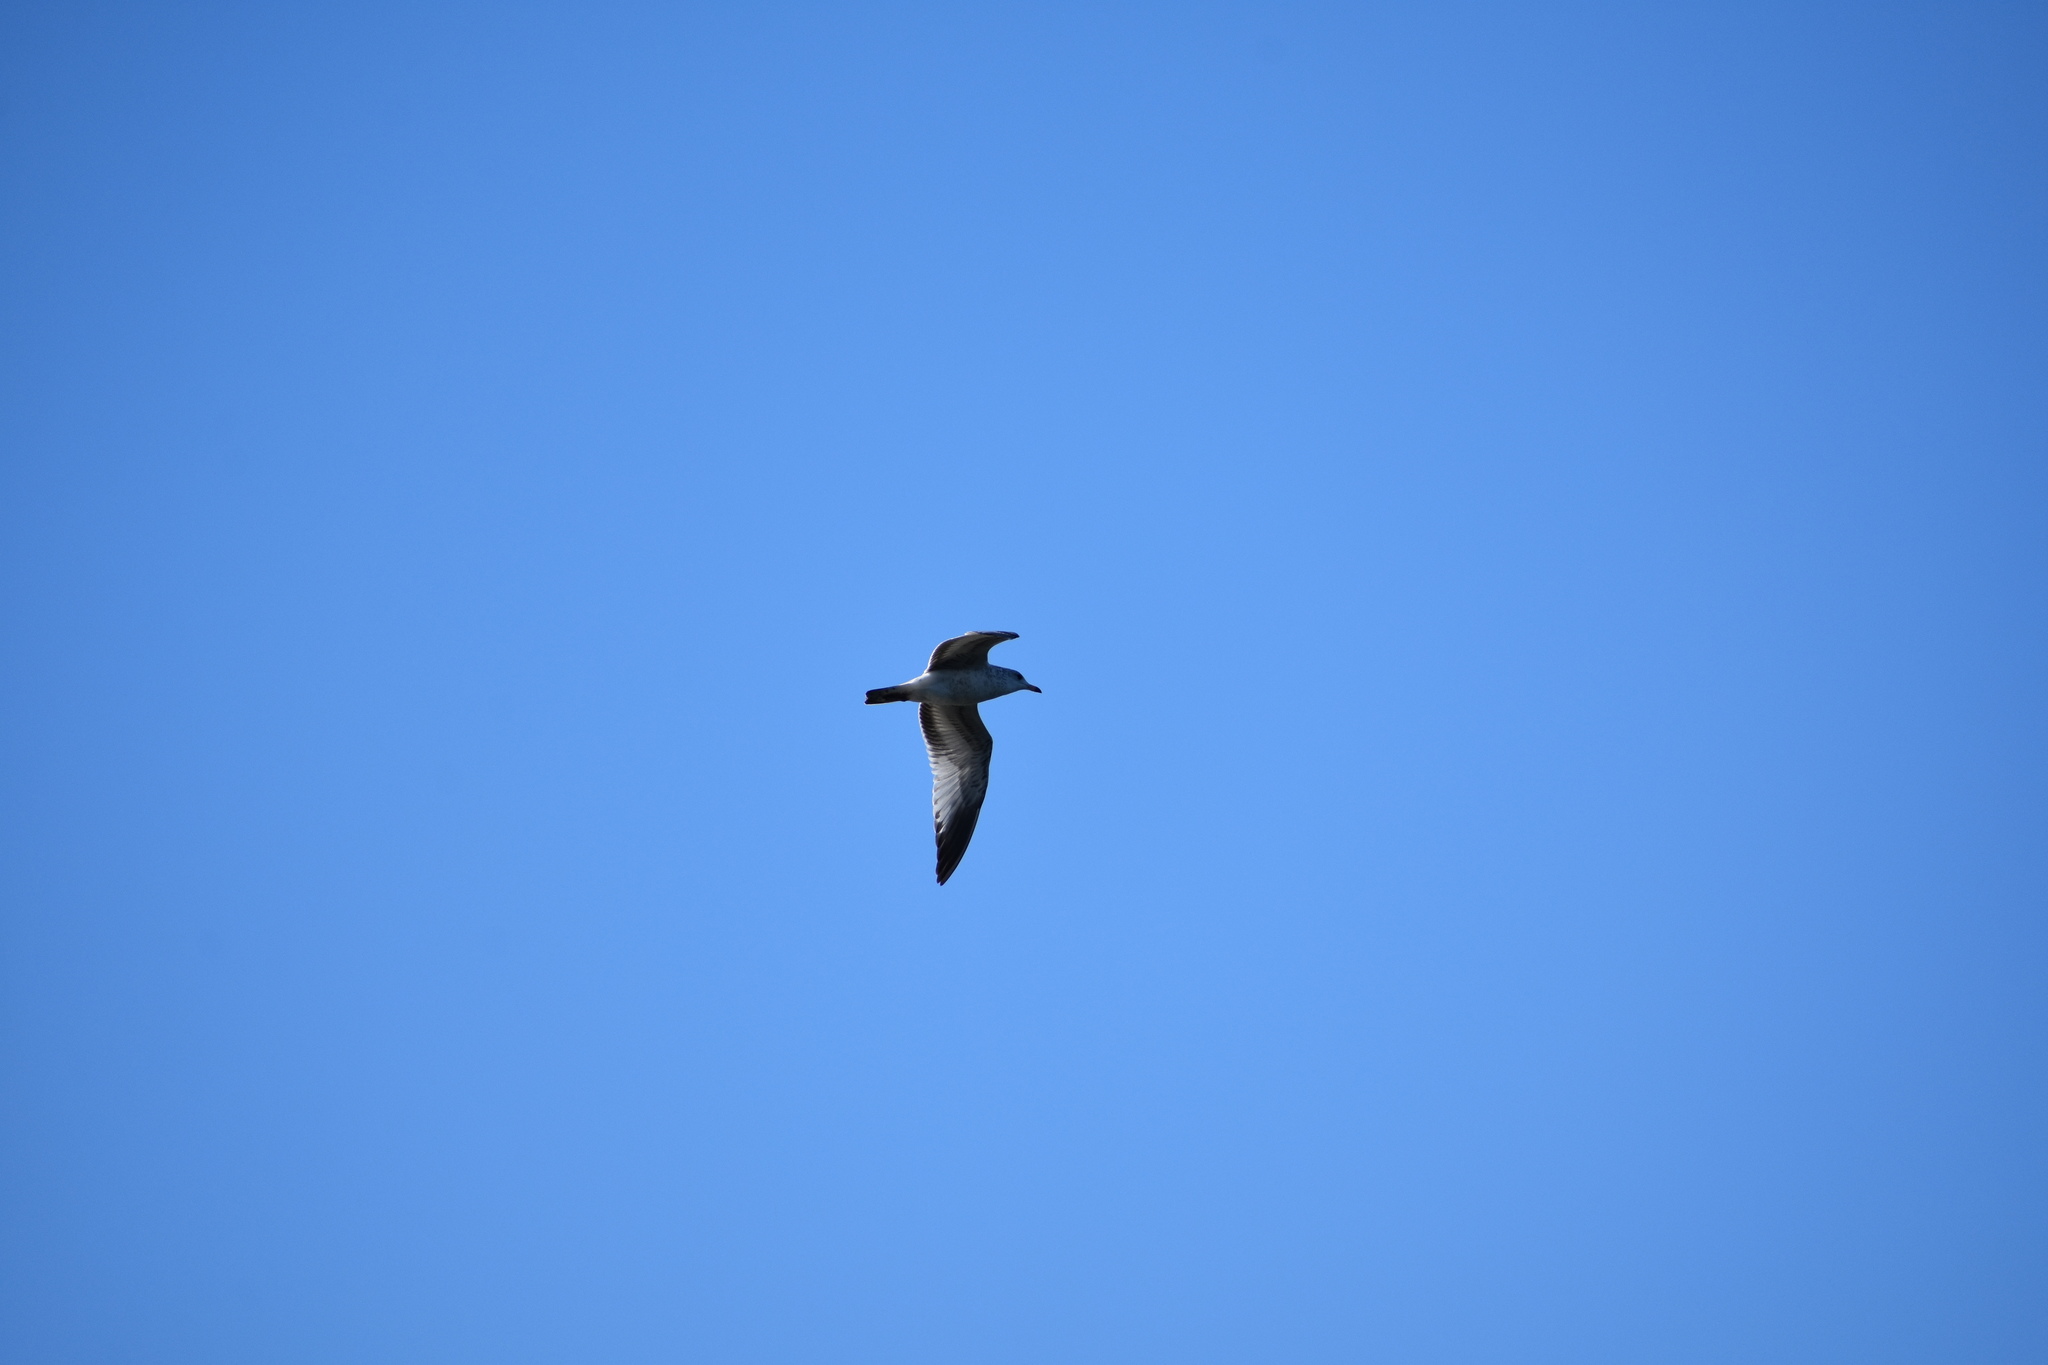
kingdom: Animalia
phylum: Chordata
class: Aves
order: Charadriiformes
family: Laridae
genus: Larus
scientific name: Larus delawarensis
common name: Ring-billed gull
